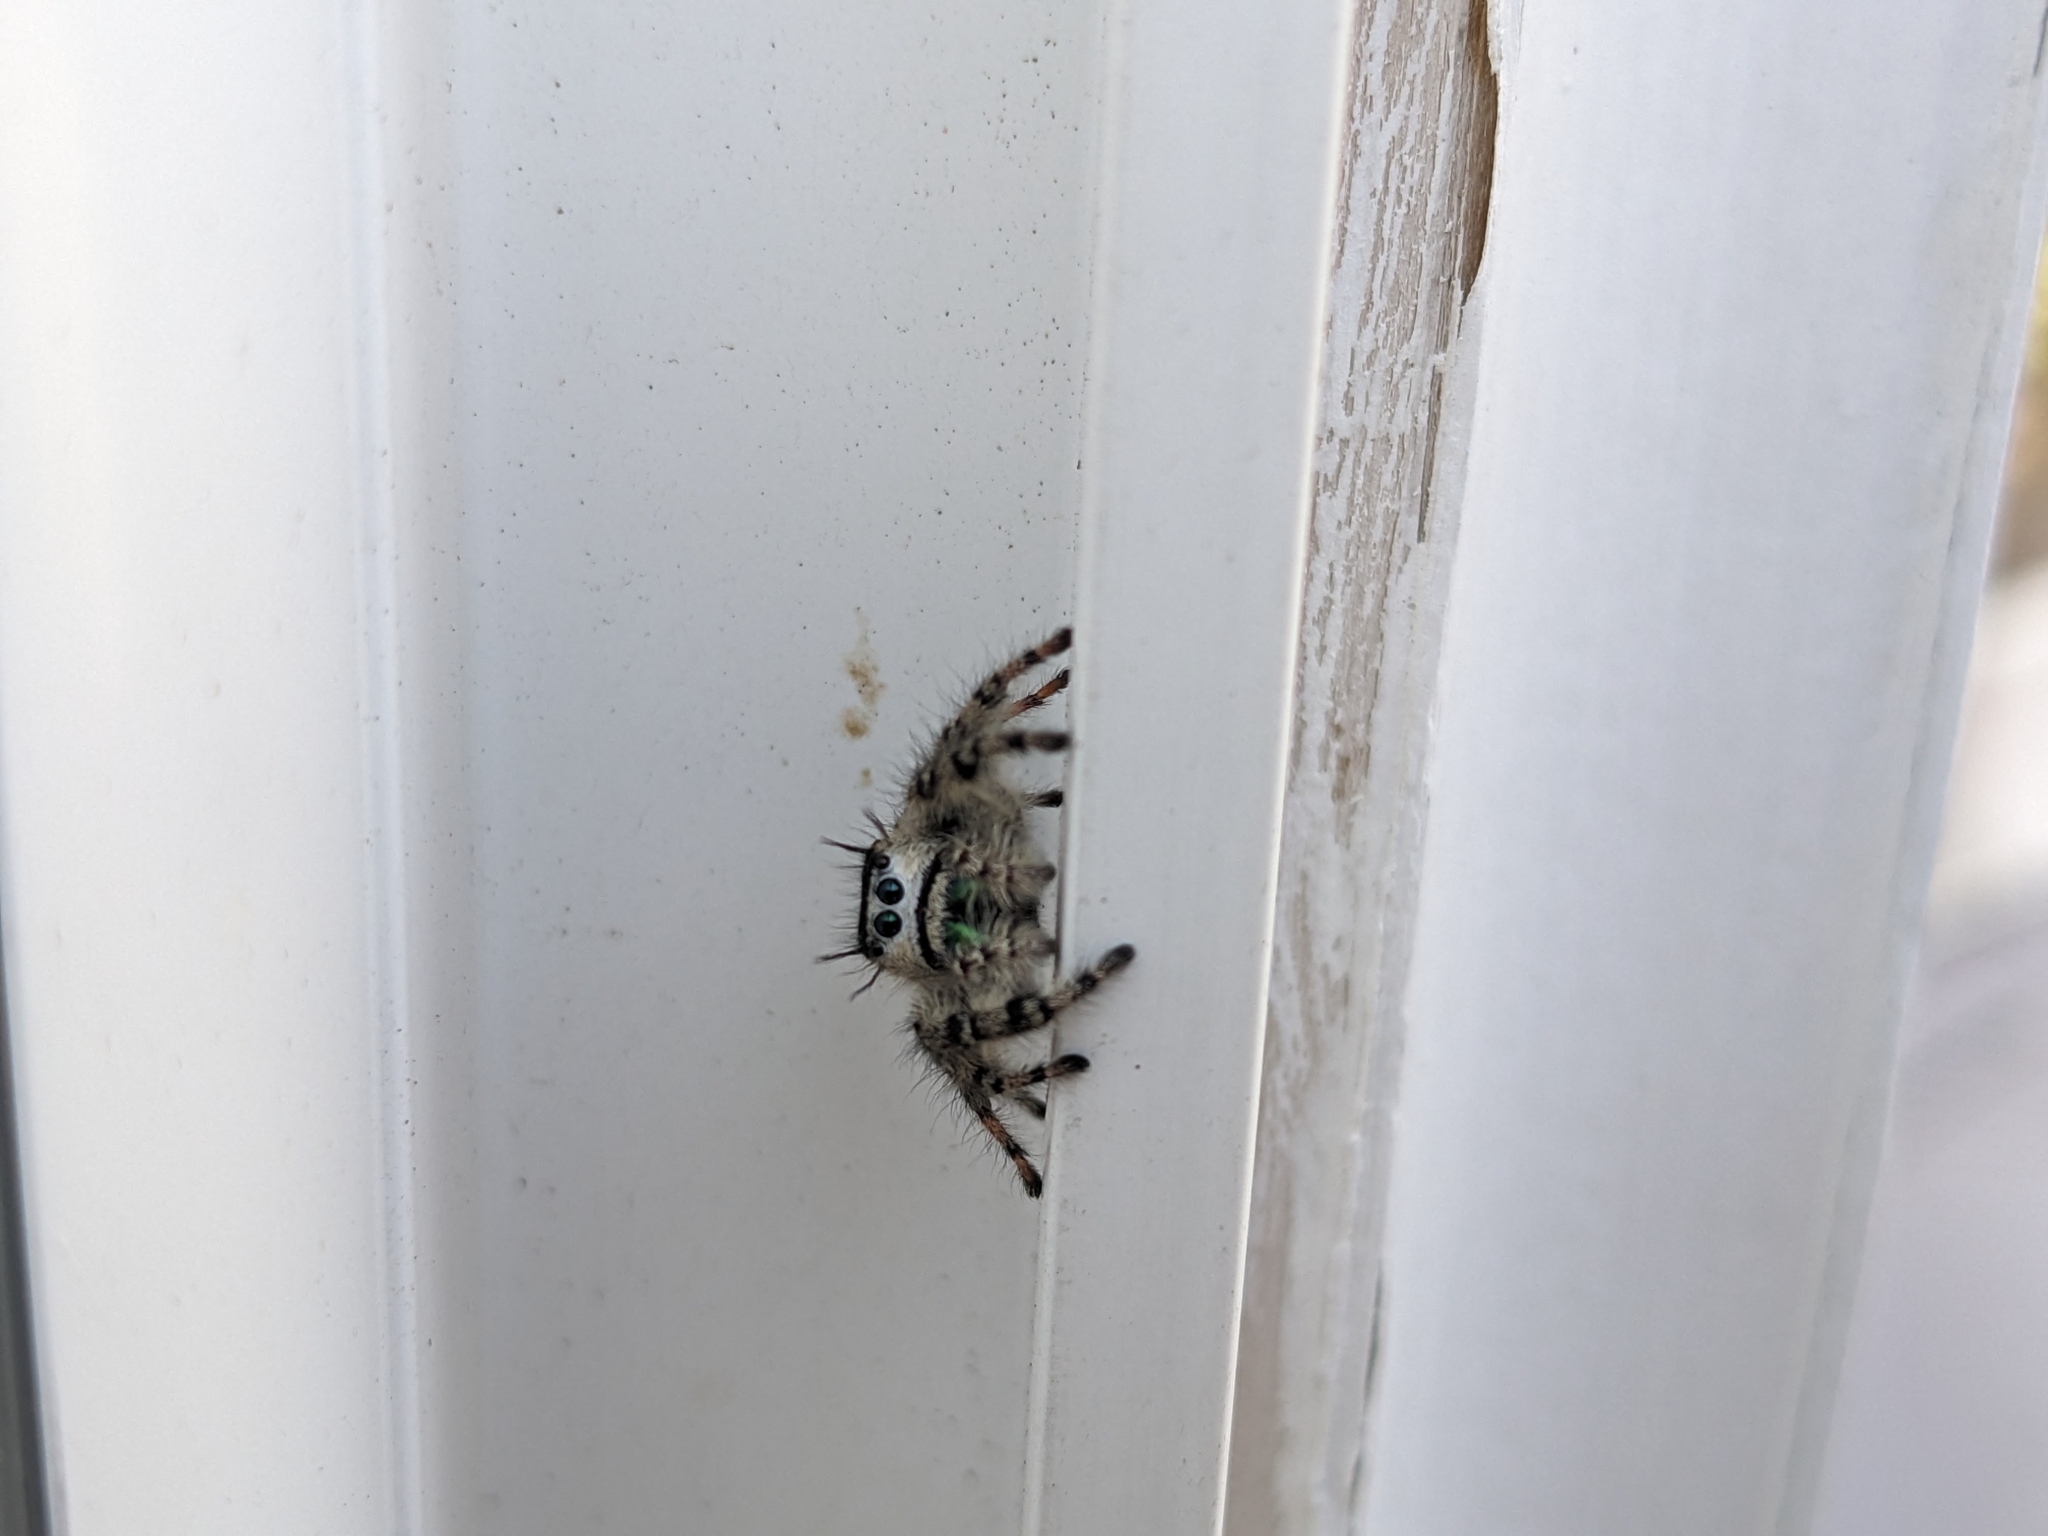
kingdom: Animalia
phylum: Arthropoda
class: Arachnida
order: Araneae
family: Salticidae
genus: Phidippus
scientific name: Phidippus otiosus
